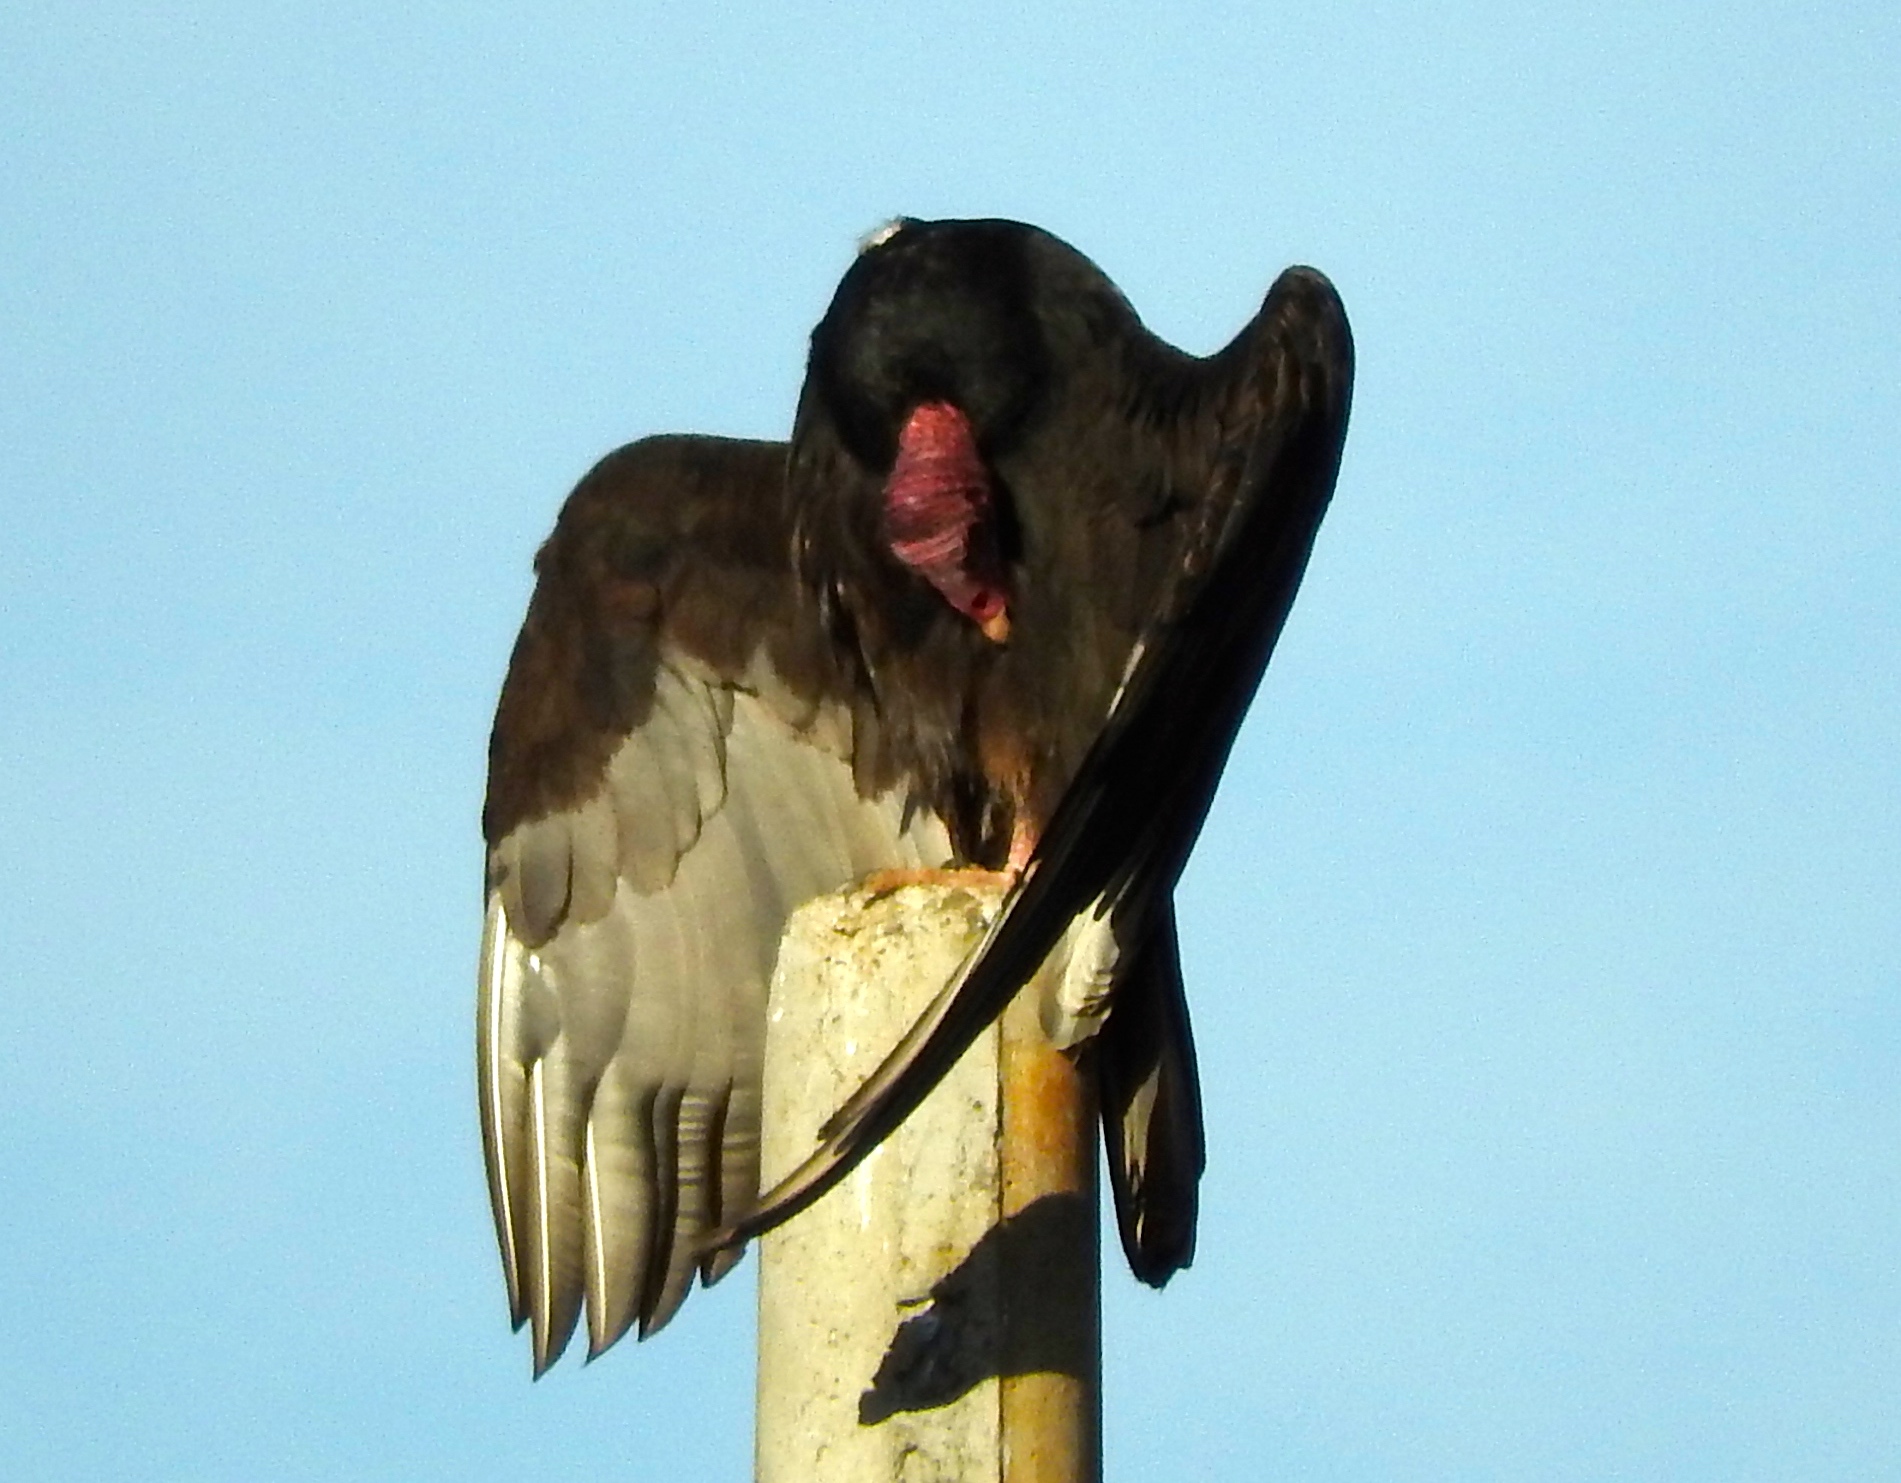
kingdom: Animalia
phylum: Chordata
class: Aves
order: Accipitriformes
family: Cathartidae
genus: Cathartes
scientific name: Cathartes aura
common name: Turkey vulture
